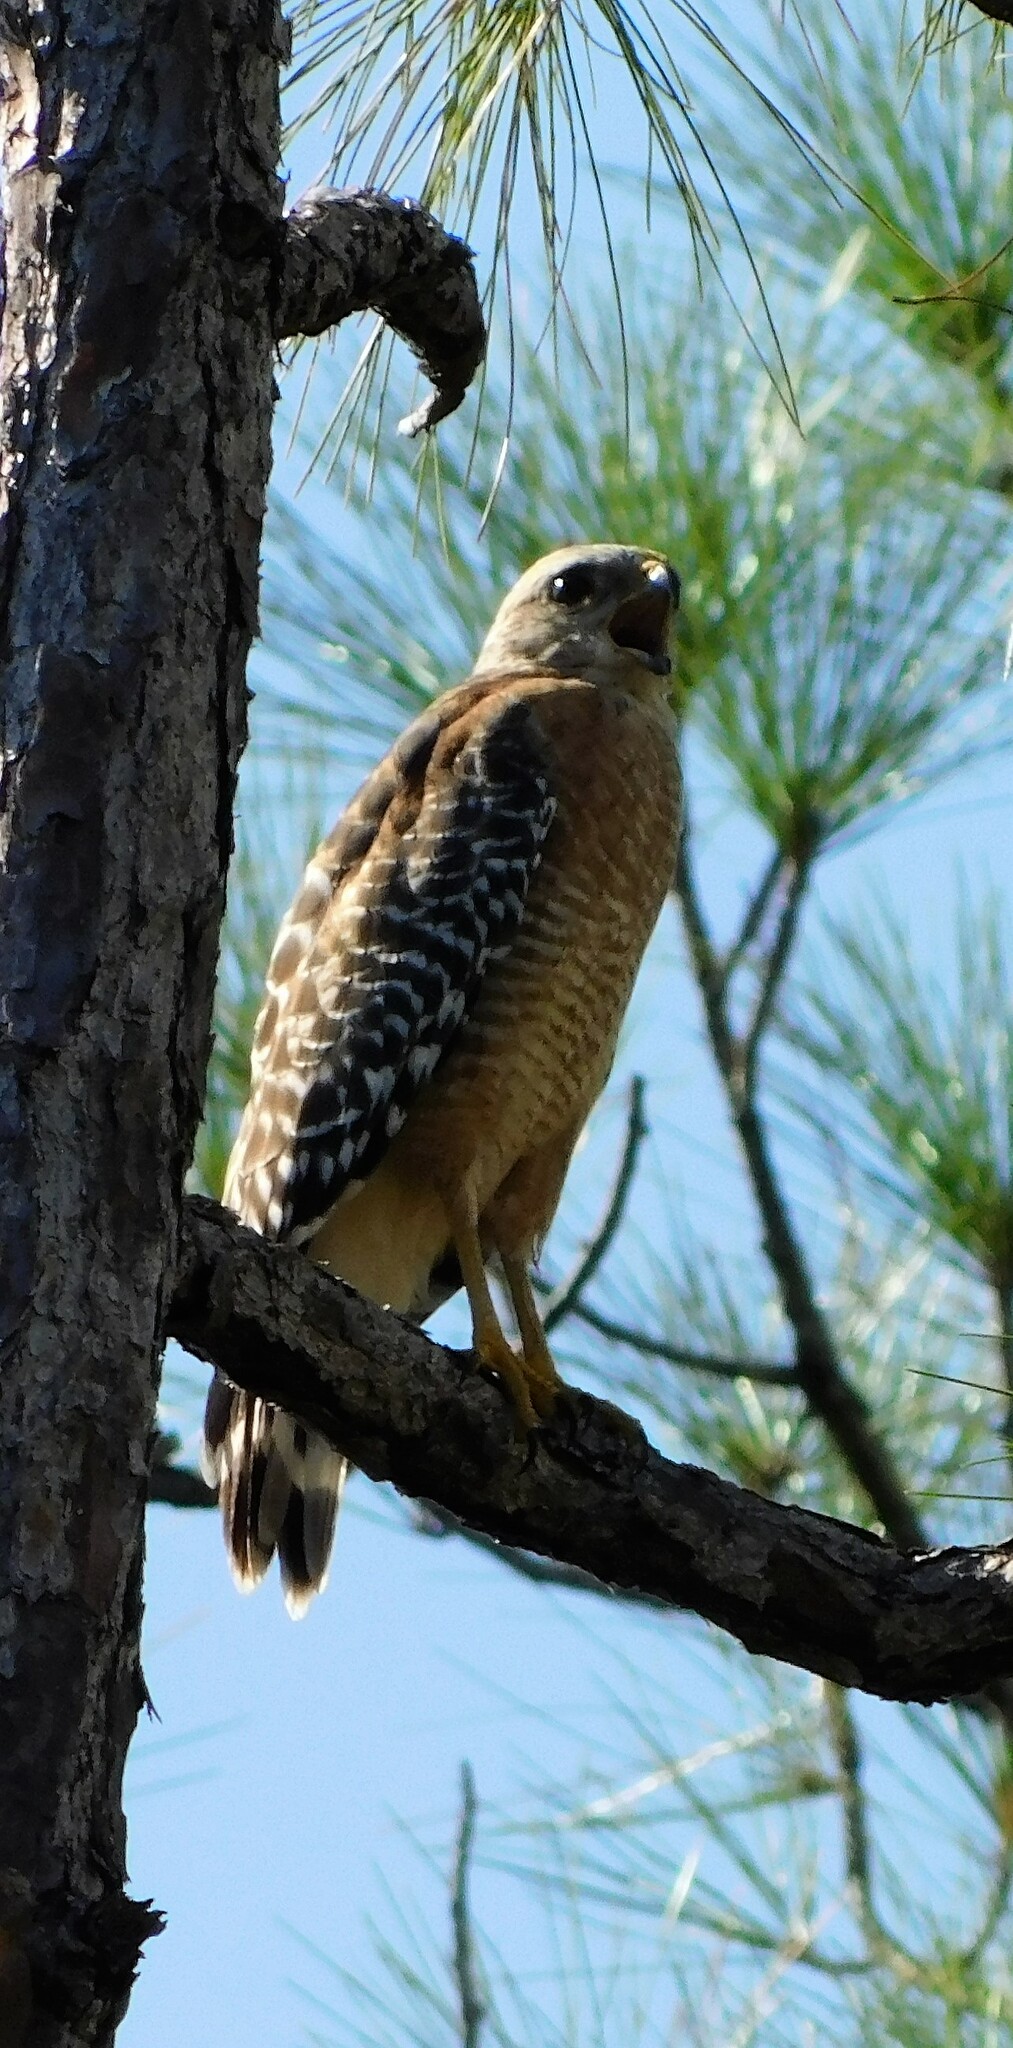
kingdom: Animalia
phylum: Chordata
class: Aves
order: Accipitriformes
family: Accipitridae
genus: Buteo
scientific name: Buteo lineatus
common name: Red-shouldered hawk
